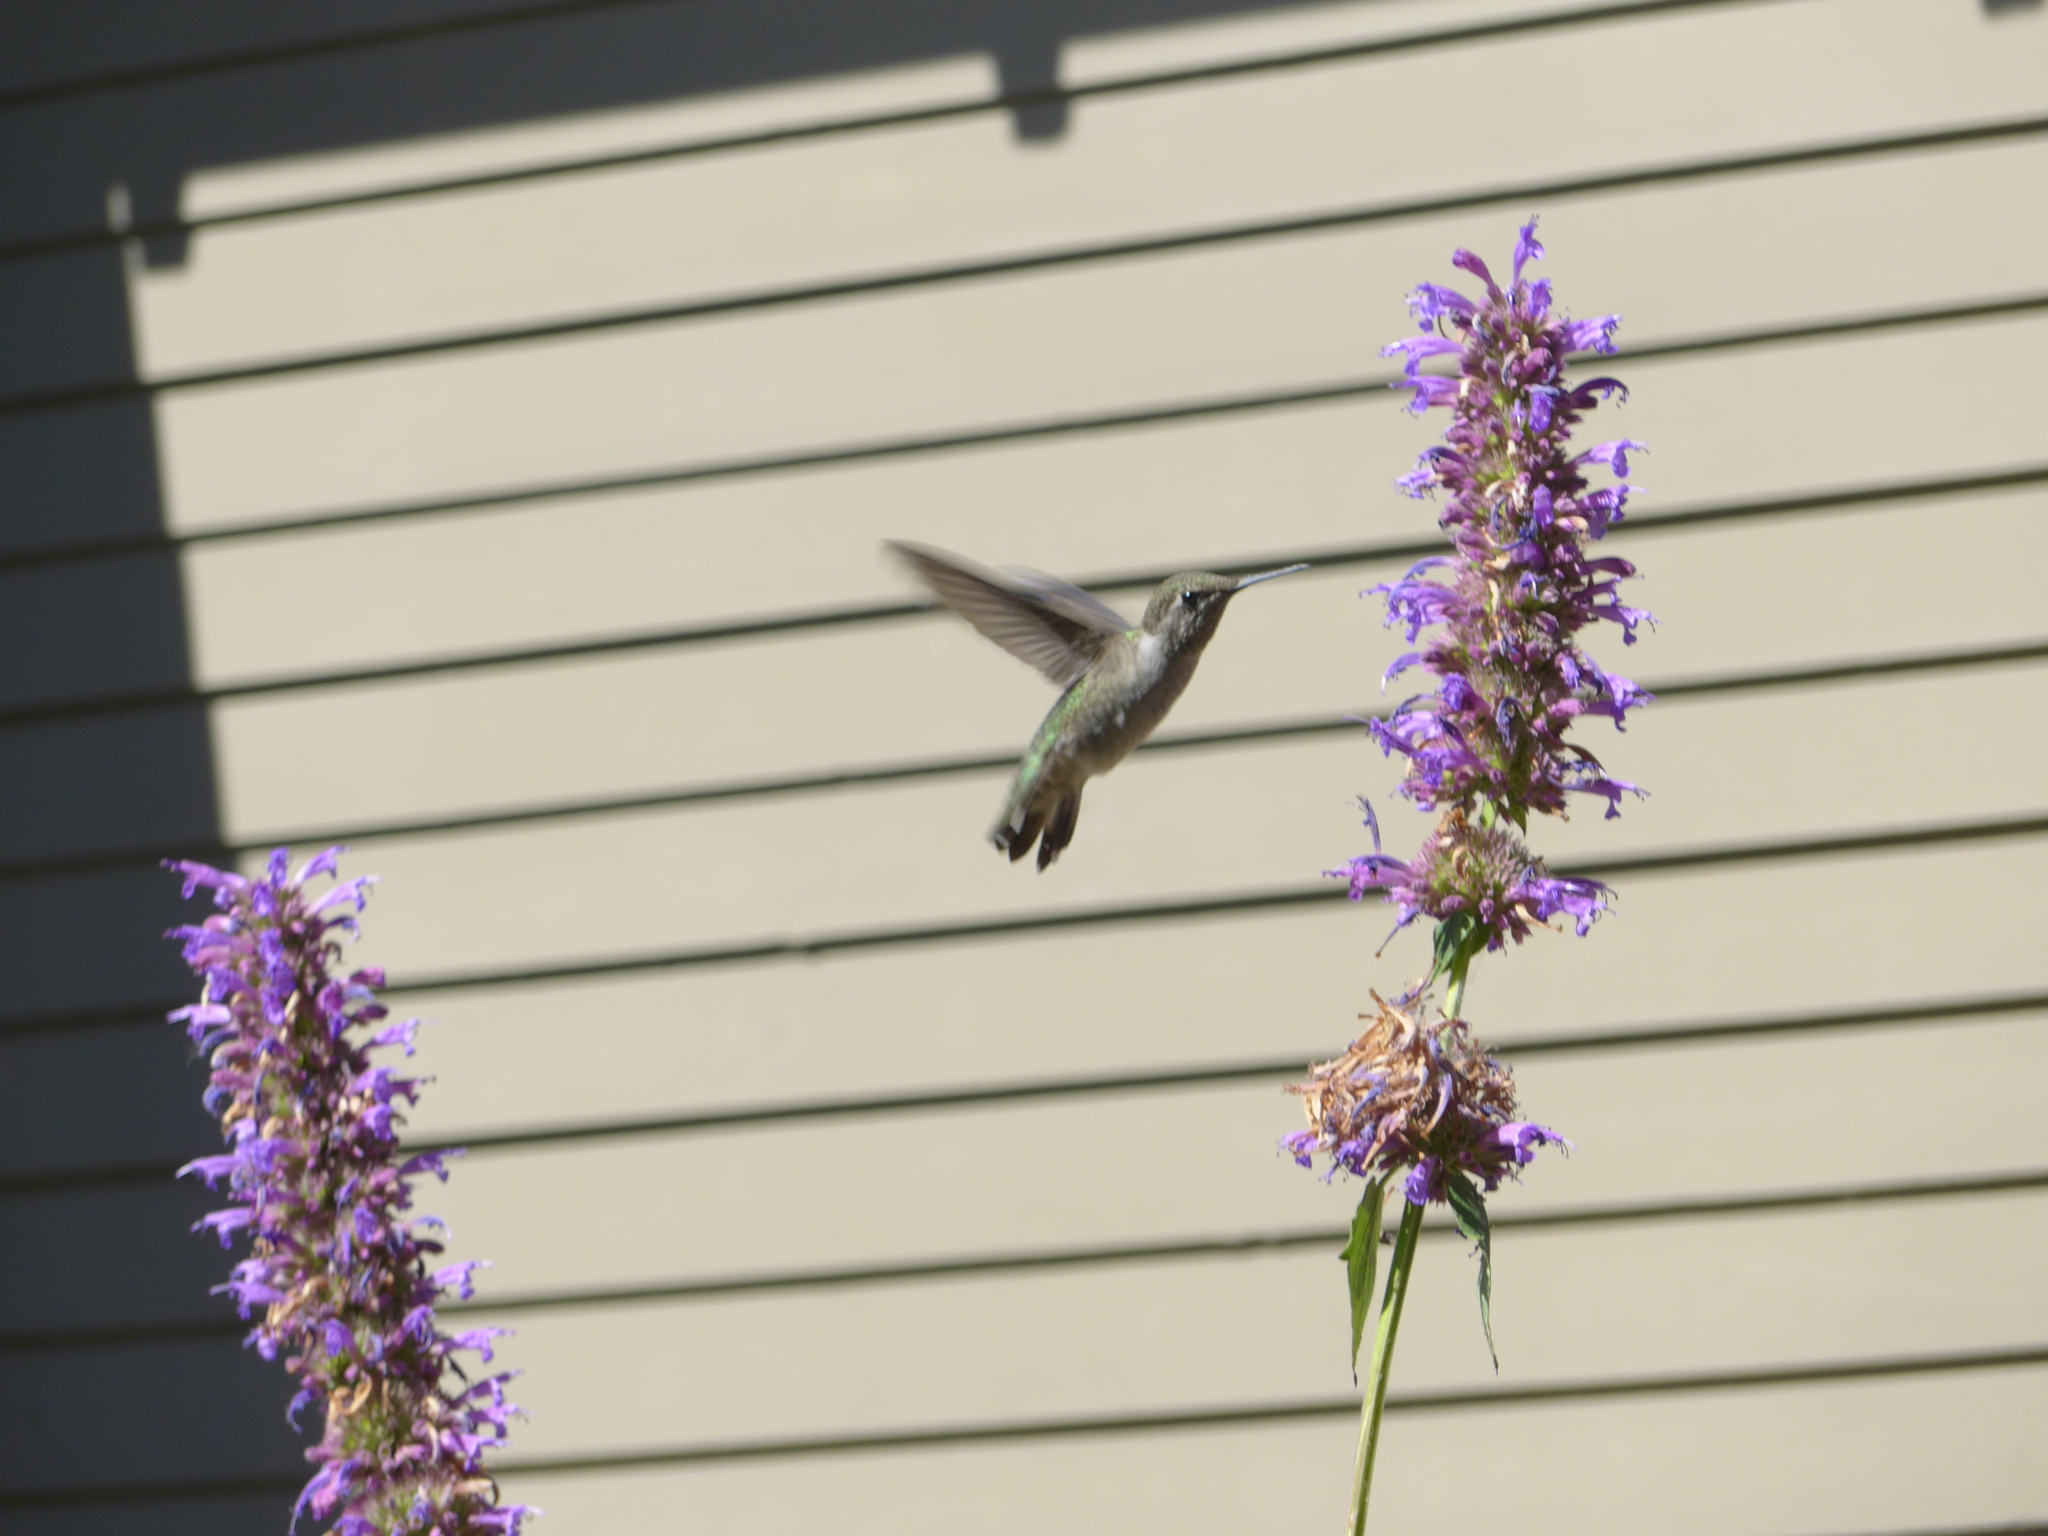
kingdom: Animalia
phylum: Chordata
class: Aves
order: Apodiformes
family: Trochilidae
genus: Calypte
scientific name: Calypte anna
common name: Anna's hummingbird
